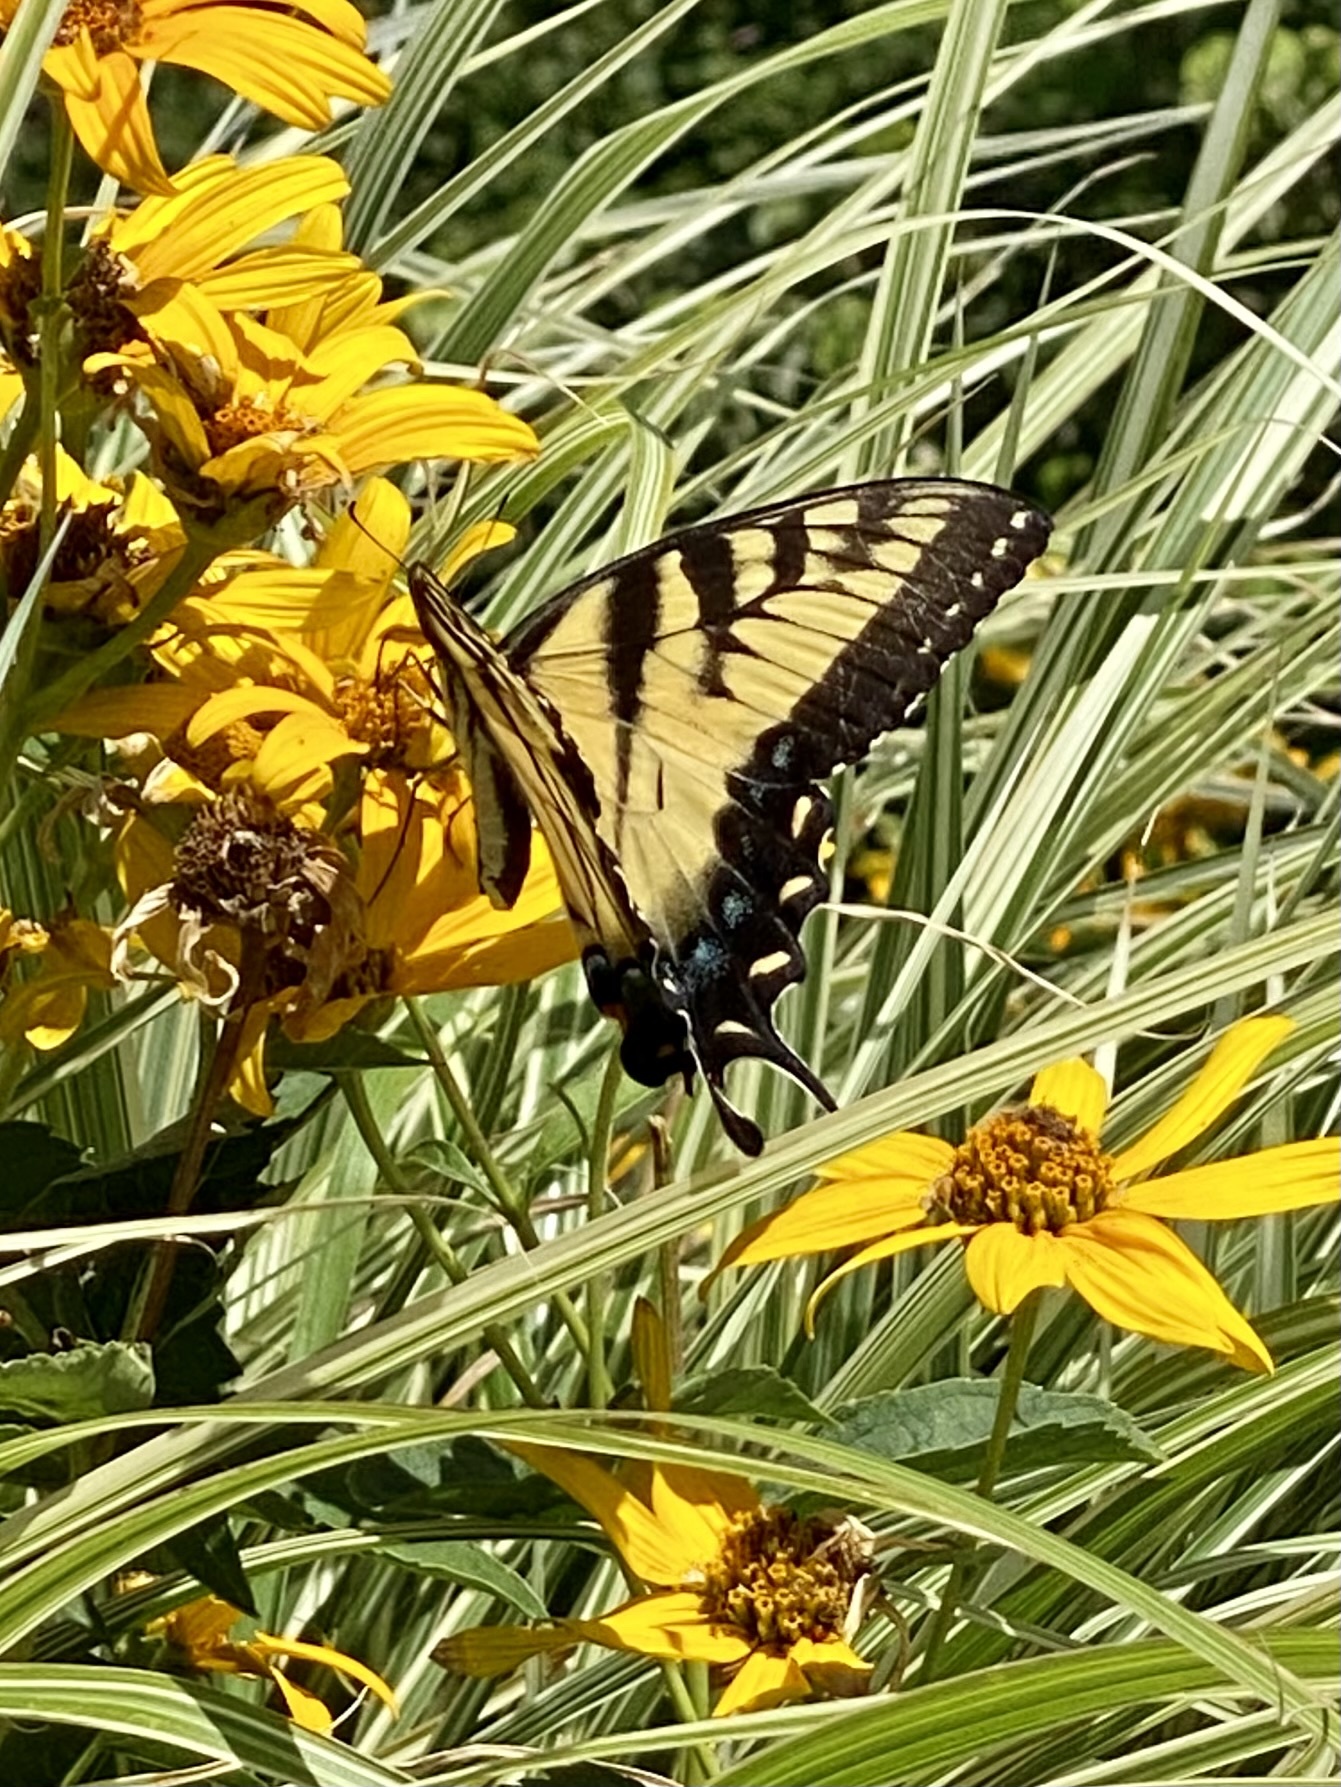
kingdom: Animalia
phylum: Arthropoda
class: Insecta
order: Lepidoptera
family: Papilionidae
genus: Papilio
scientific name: Papilio glaucus
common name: Tiger swallowtail
